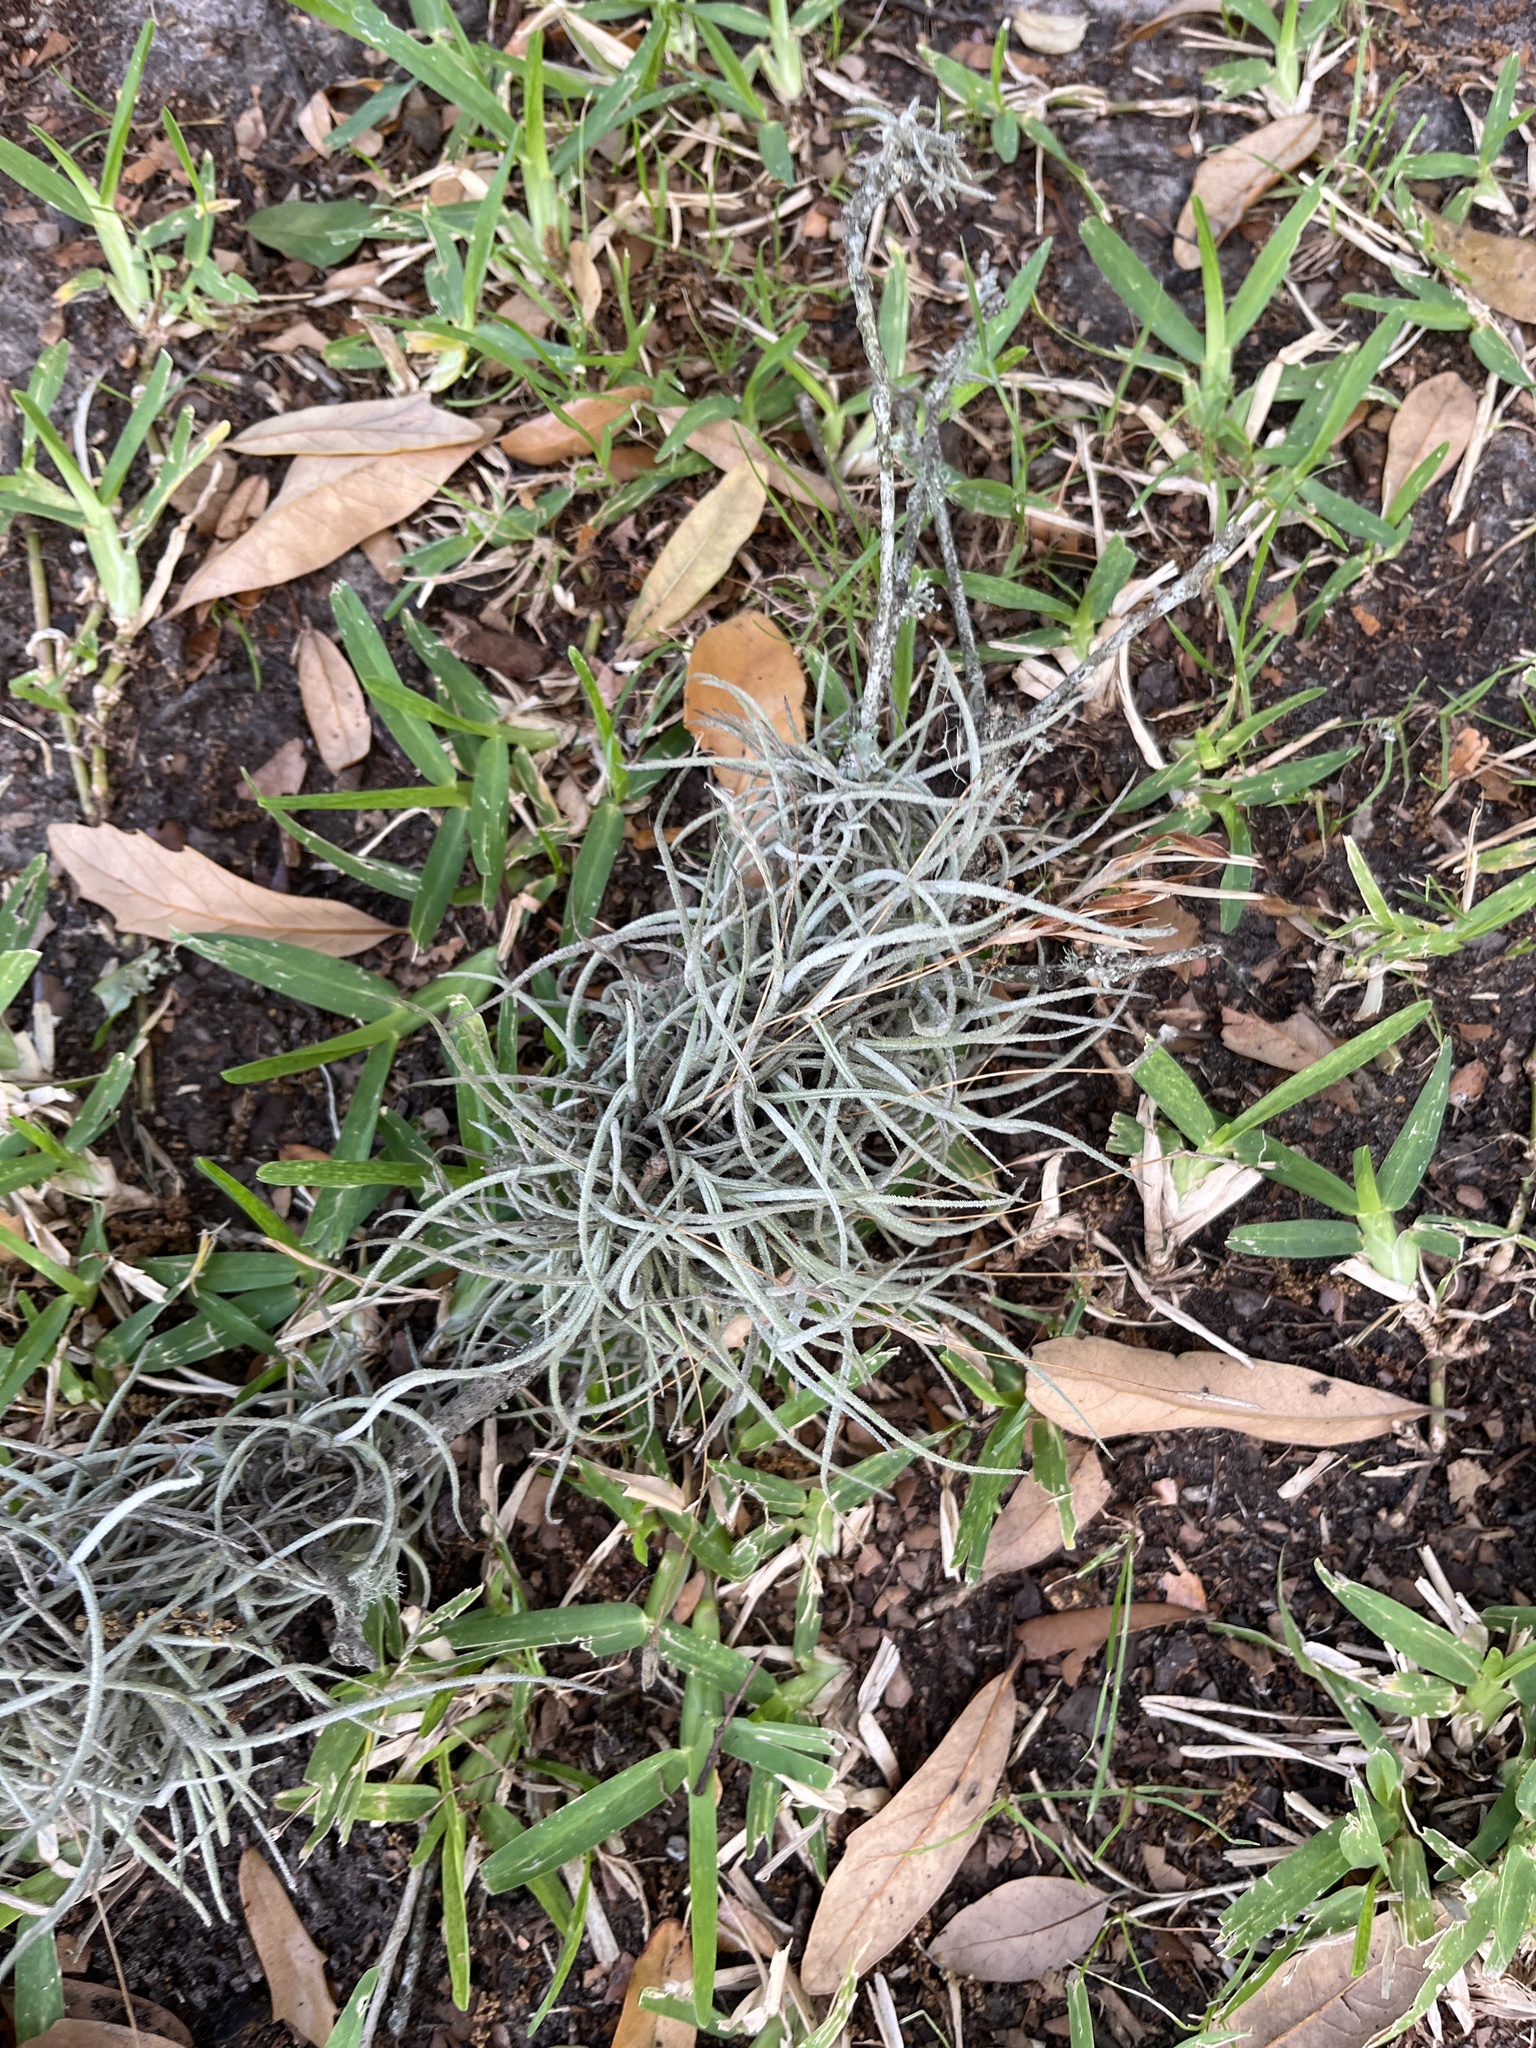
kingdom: Plantae
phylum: Tracheophyta
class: Liliopsida
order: Poales
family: Bromeliaceae
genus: Tillandsia
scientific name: Tillandsia recurvata
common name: Small ballmoss
